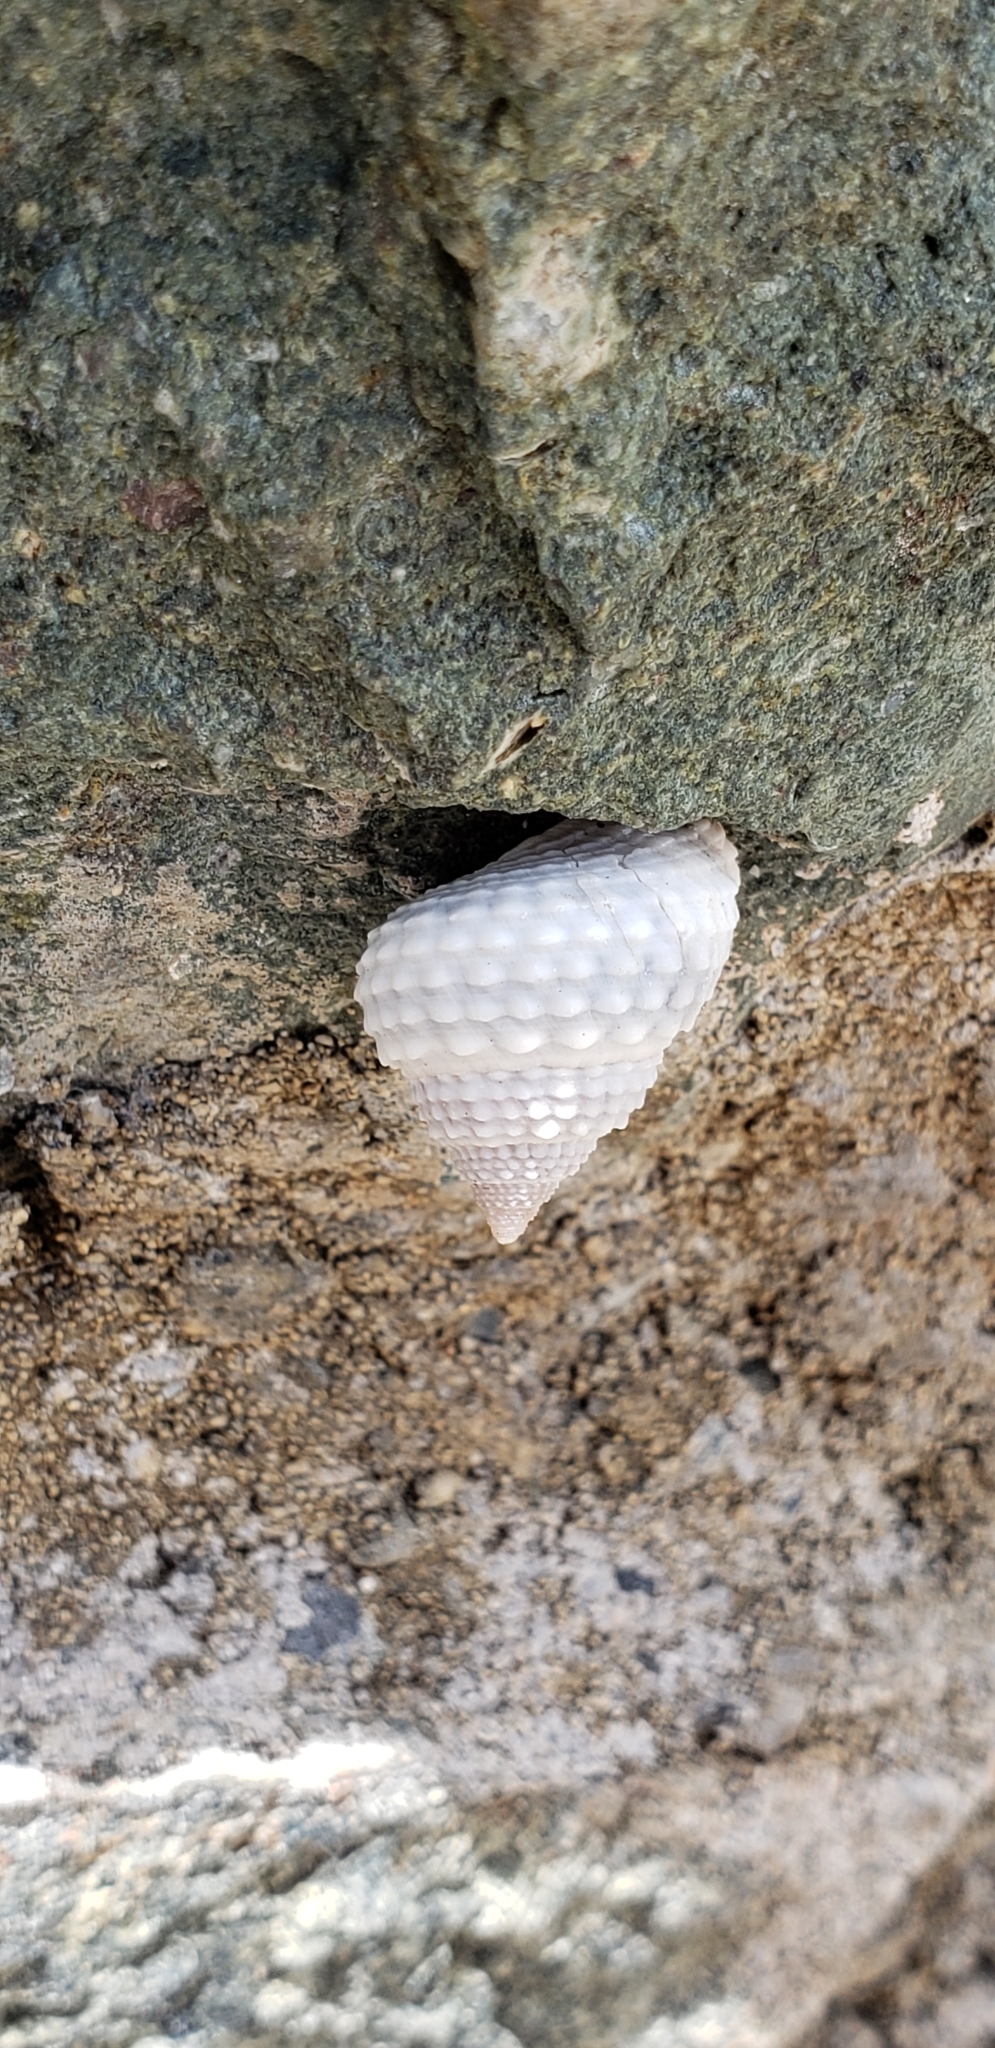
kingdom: Animalia
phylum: Mollusca
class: Gastropoda
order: Littorinimorpha
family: Littorinidae
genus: Cenchritis
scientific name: Cenchritis muricatus
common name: Beaded periwinkle
